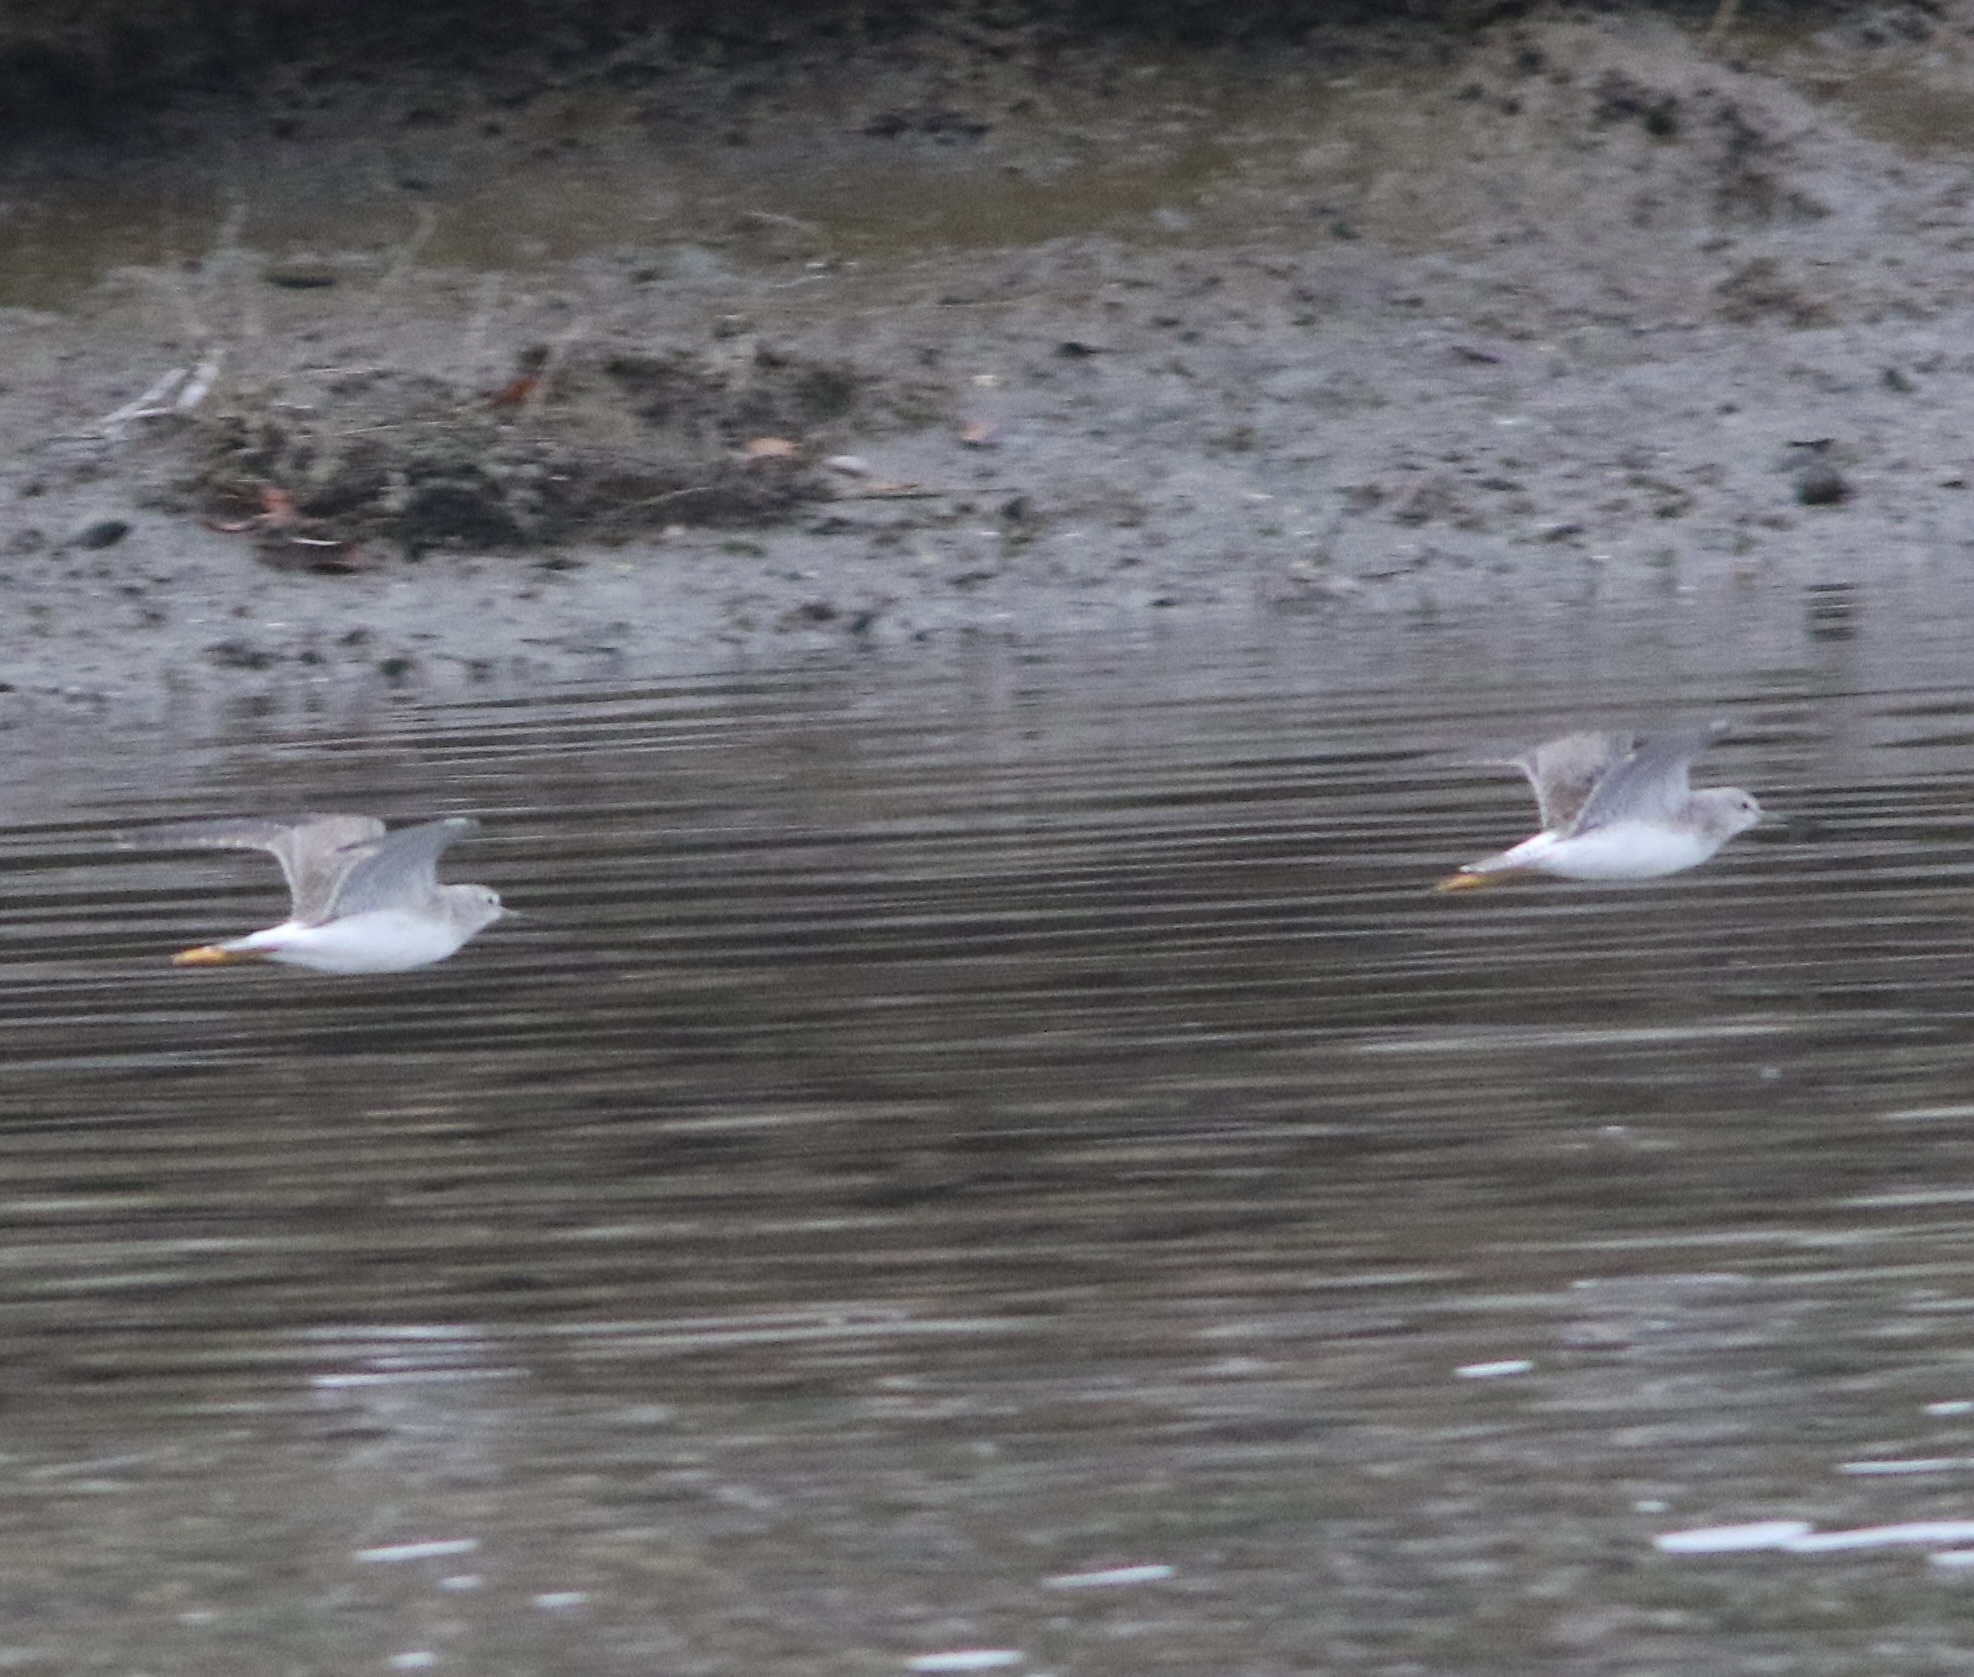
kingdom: Animalia
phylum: Chordata
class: Aves
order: Charadriiformes
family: Scolopacidae
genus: Tringa
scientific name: Tringa melanoleuca
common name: Greater yellowlegs
